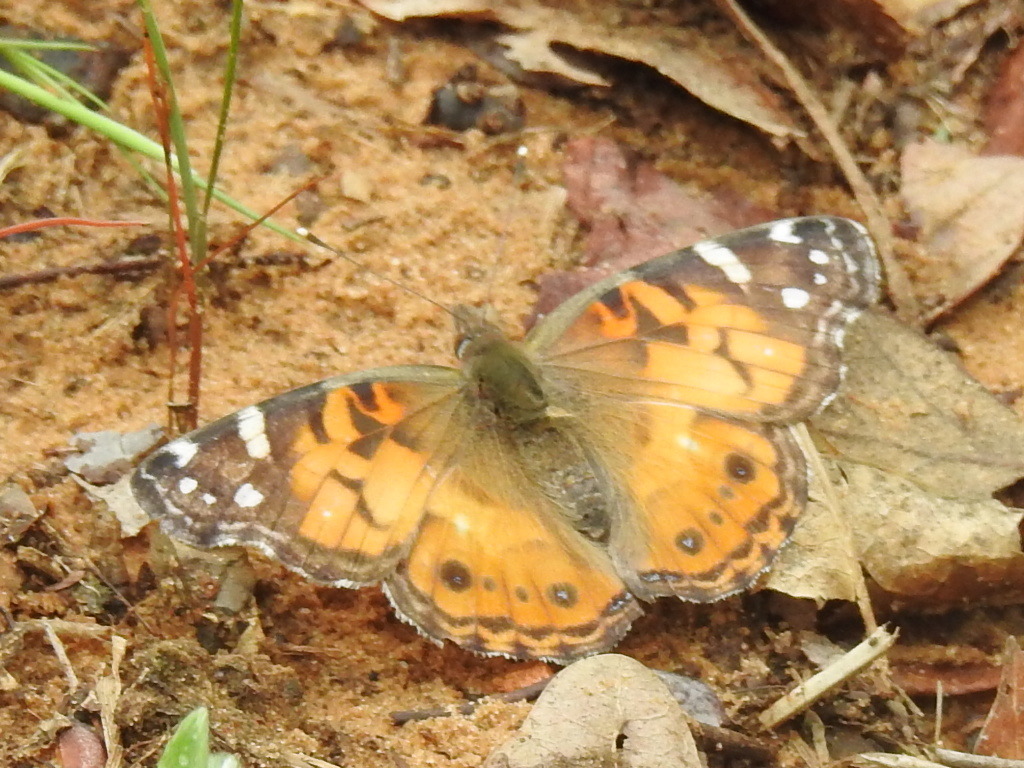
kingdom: Animalia
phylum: Arthropoda
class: Insecta
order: Lepidoptera
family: Nymphalidae
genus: Vanessa
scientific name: Vanessa virginiensis
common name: American lady
